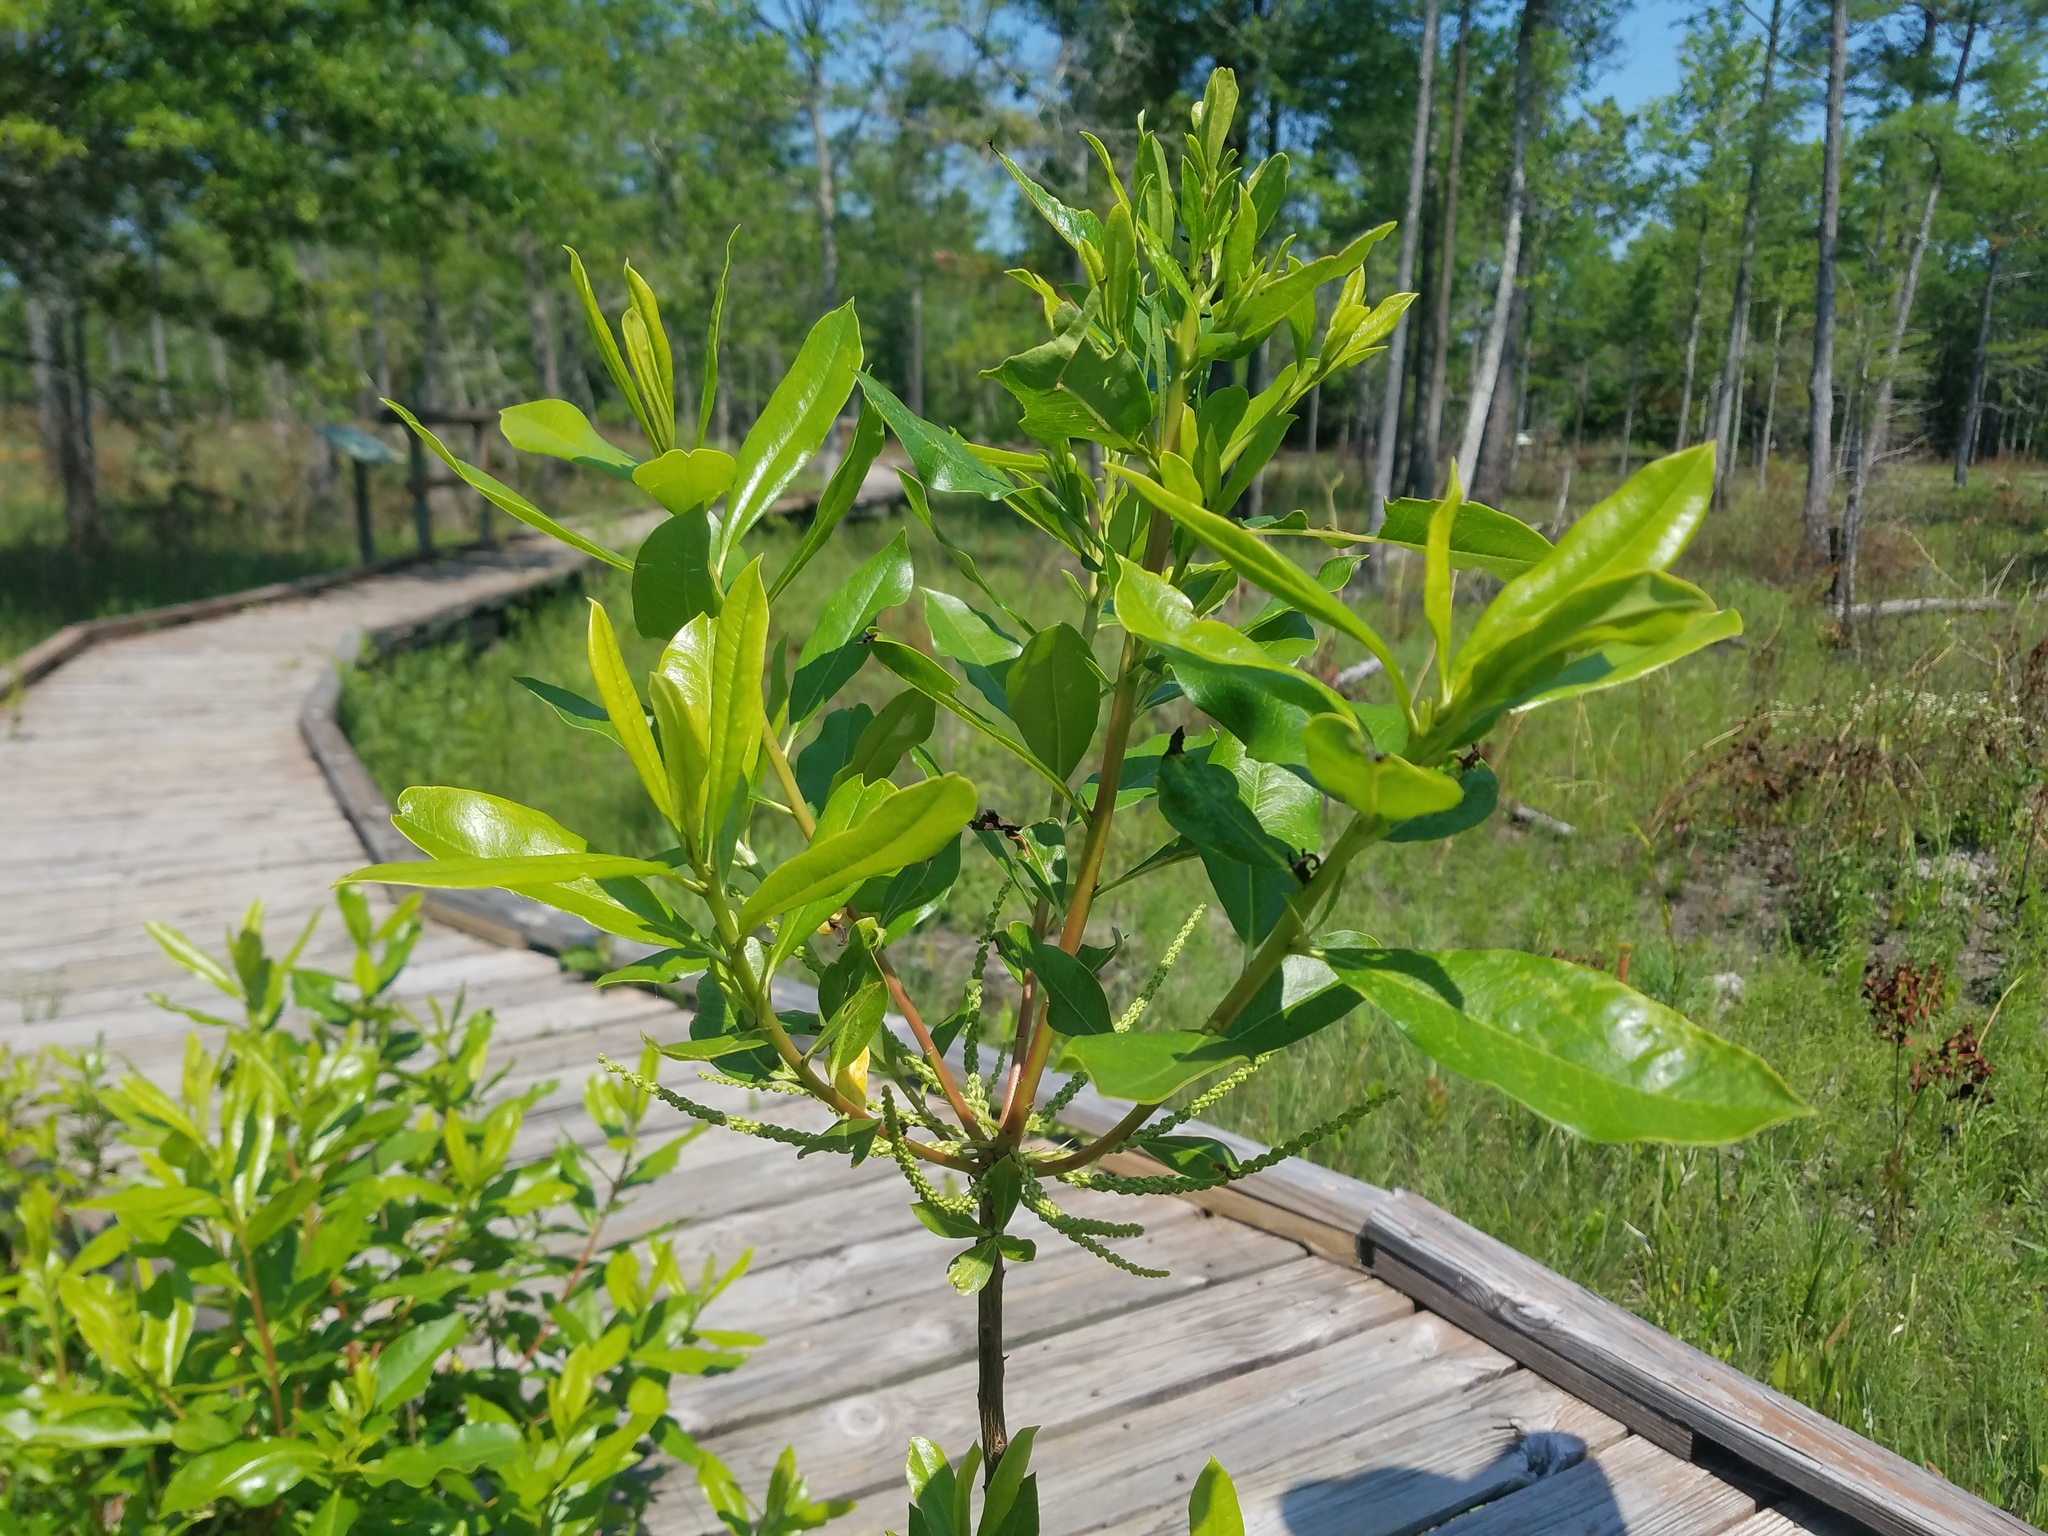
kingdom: Plantae
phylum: Tracheophyta
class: Magnoliopsida
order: Ericales
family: Cyrillaceae
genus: Cyrilla
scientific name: Cyrilla racemiflora
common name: Black titi
